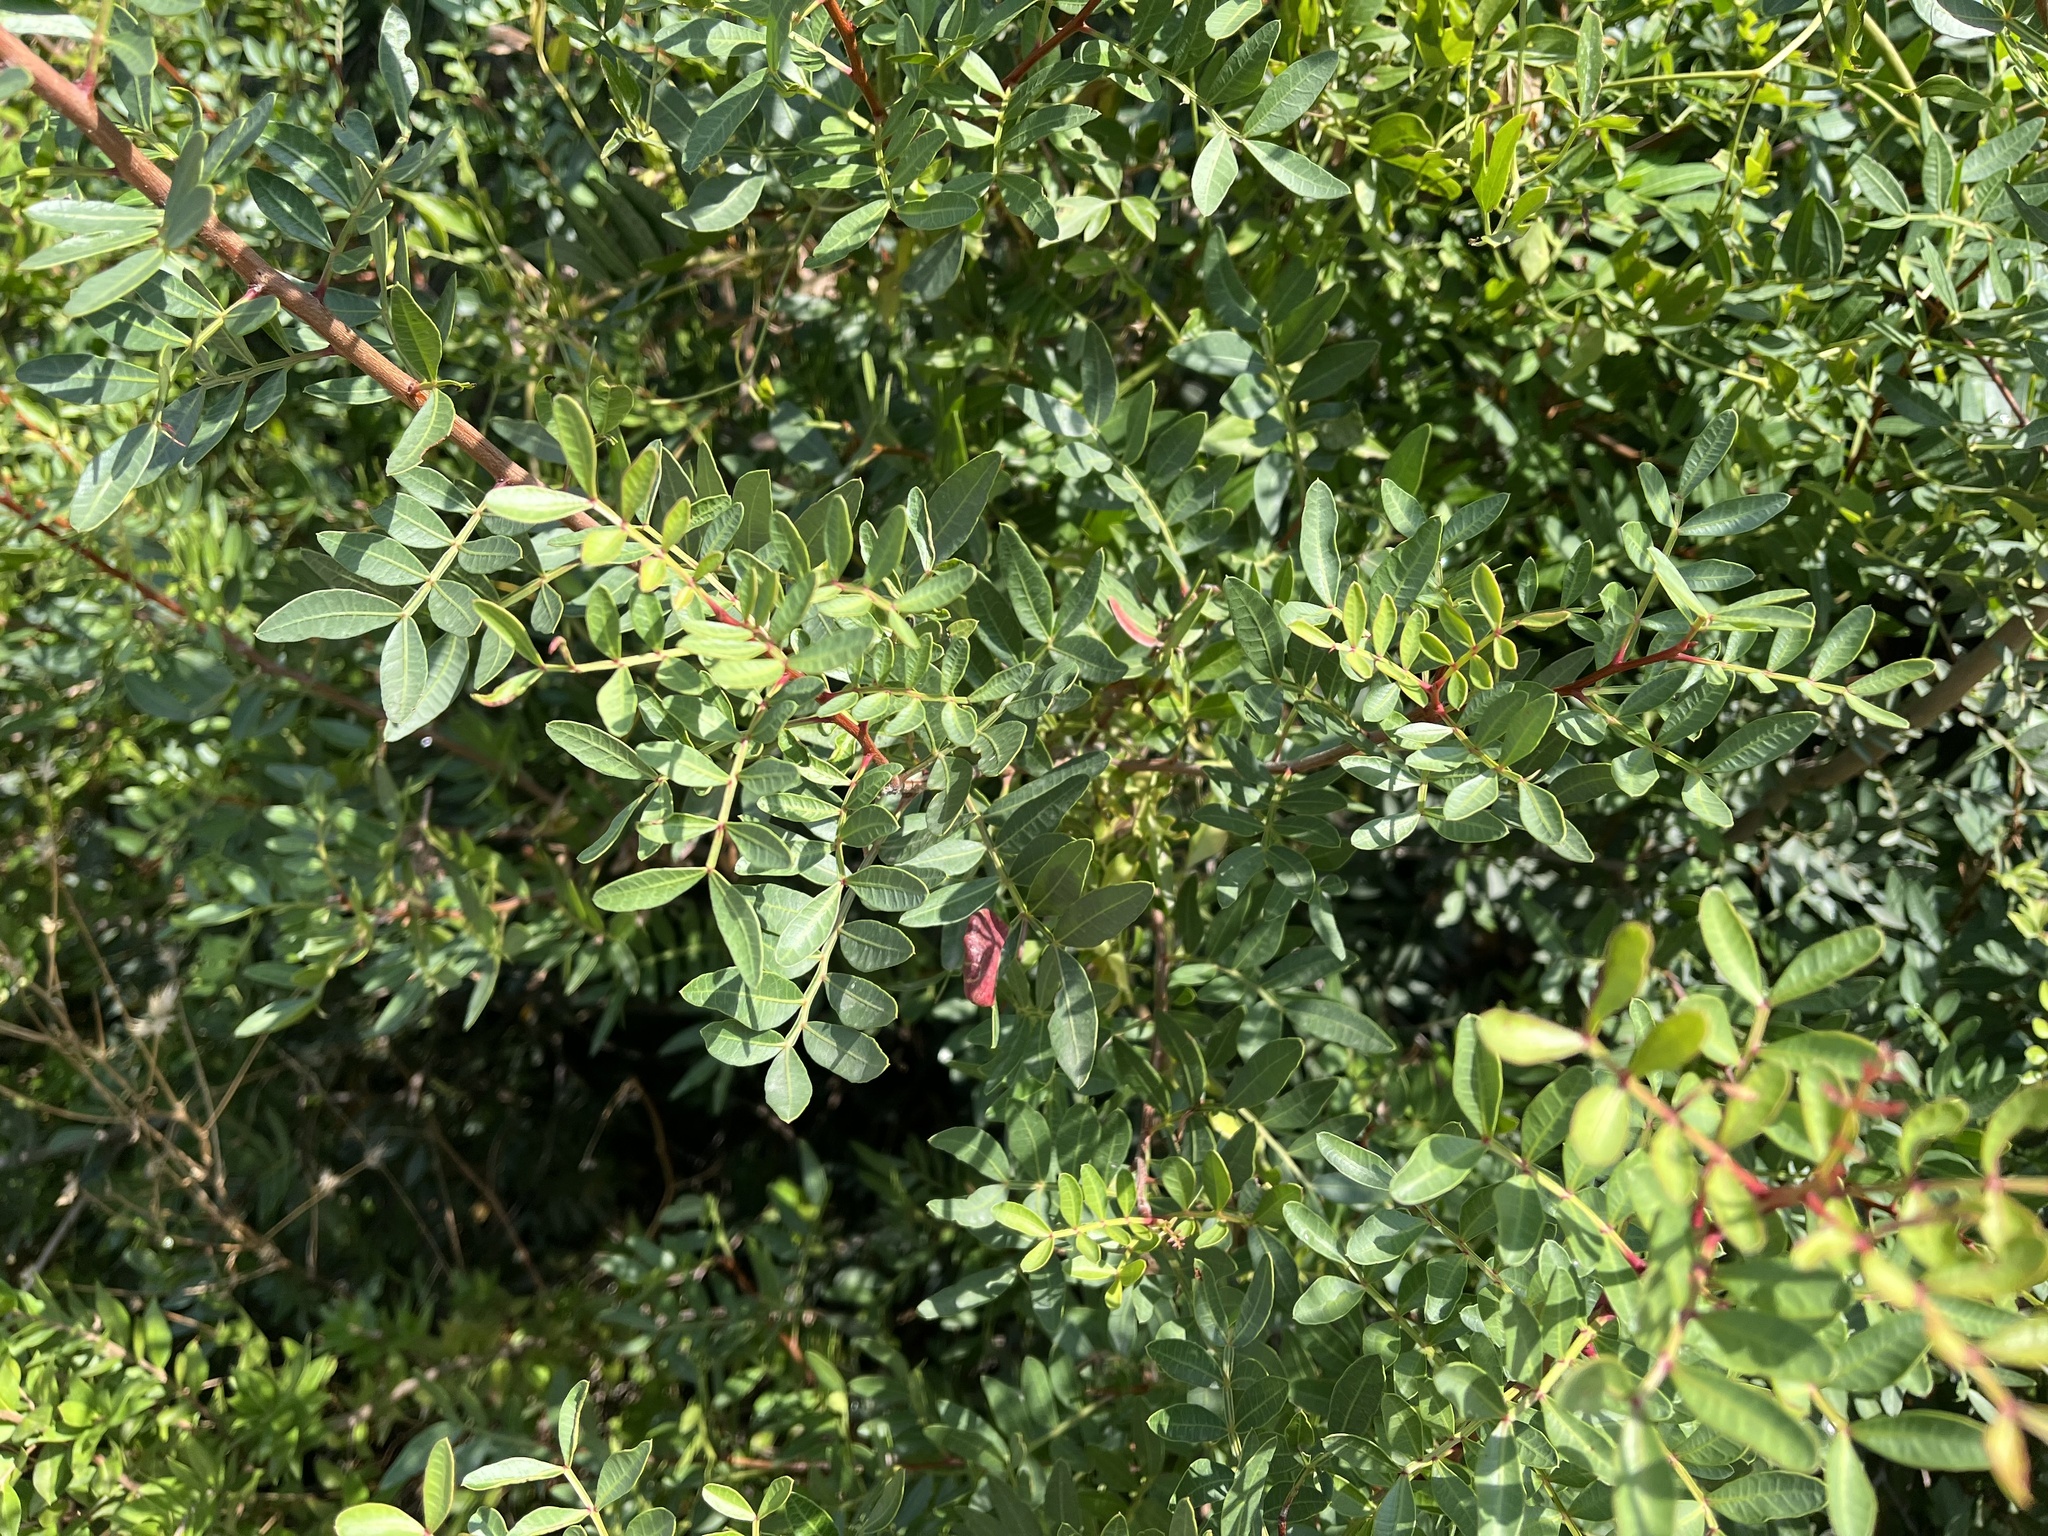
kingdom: Plantae
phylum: Tracheophyta
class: Magnoliopsida
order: Sapindales
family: Anacardiaceae
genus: Pistacia
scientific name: Pistacia lentiscus
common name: Lentisk
